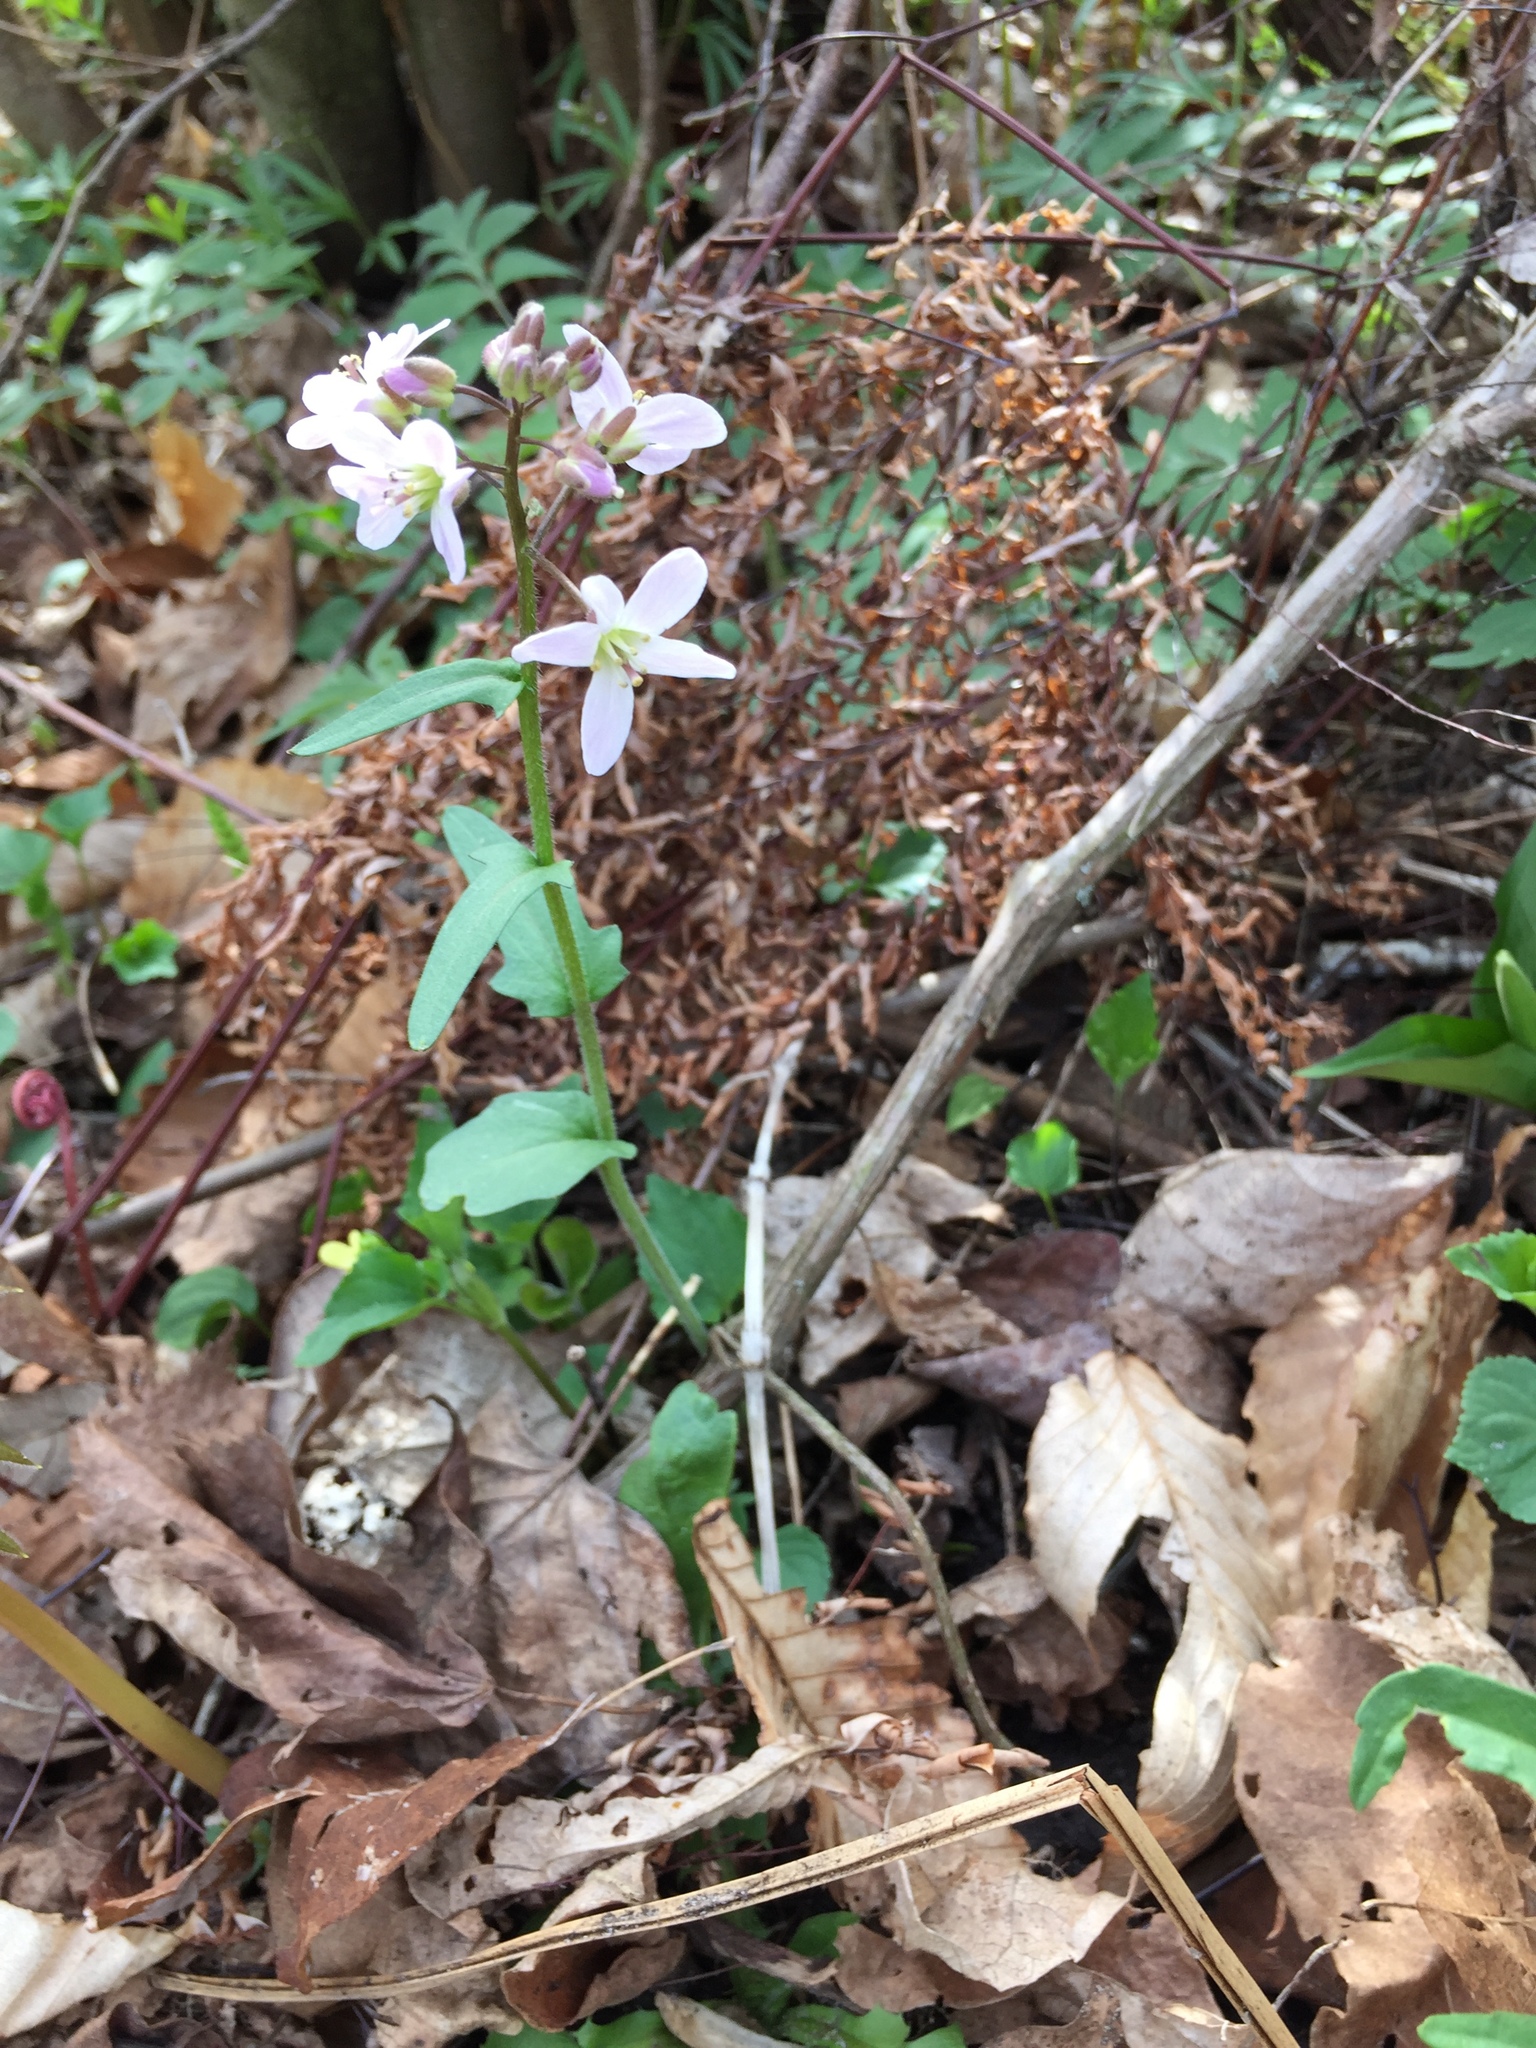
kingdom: Plantae
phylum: Tracheophyta
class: Magnoliopsida
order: Brassicales
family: Brassicaceae
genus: Cardamine
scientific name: Cardamine douglassii
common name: Purple cress
